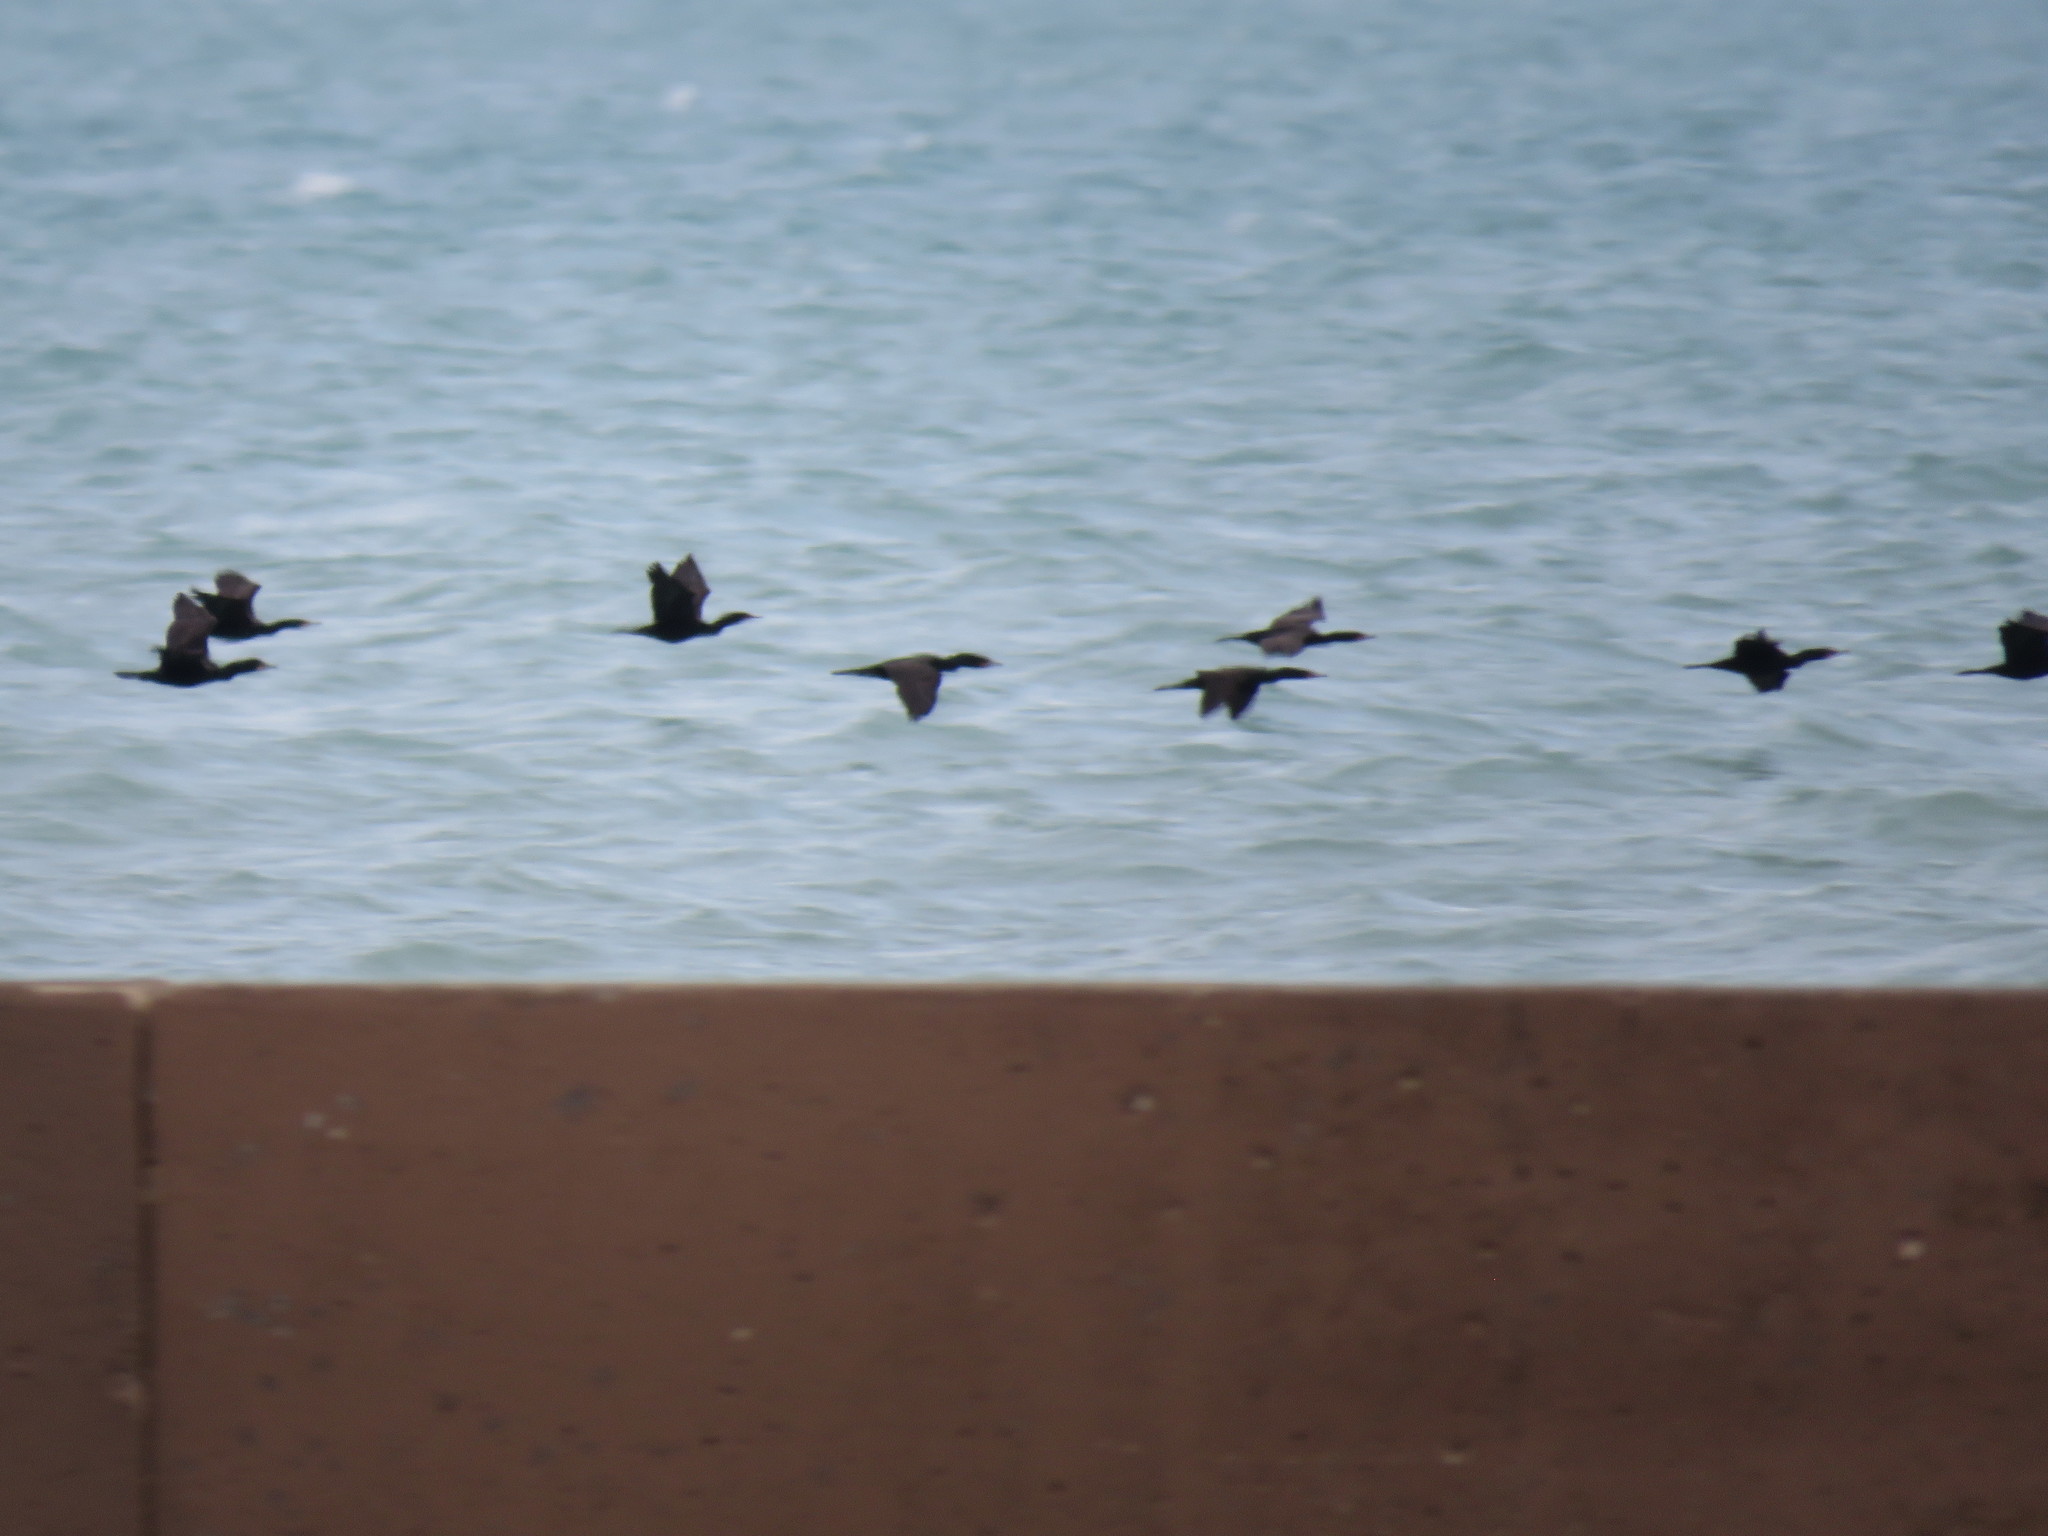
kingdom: Animalia
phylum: Chordata
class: Aves
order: Suliformes
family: Phalacrocoracidae
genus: Phalacrocorax
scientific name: Phalacrocorax auritus
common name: Double-crested cormorant
